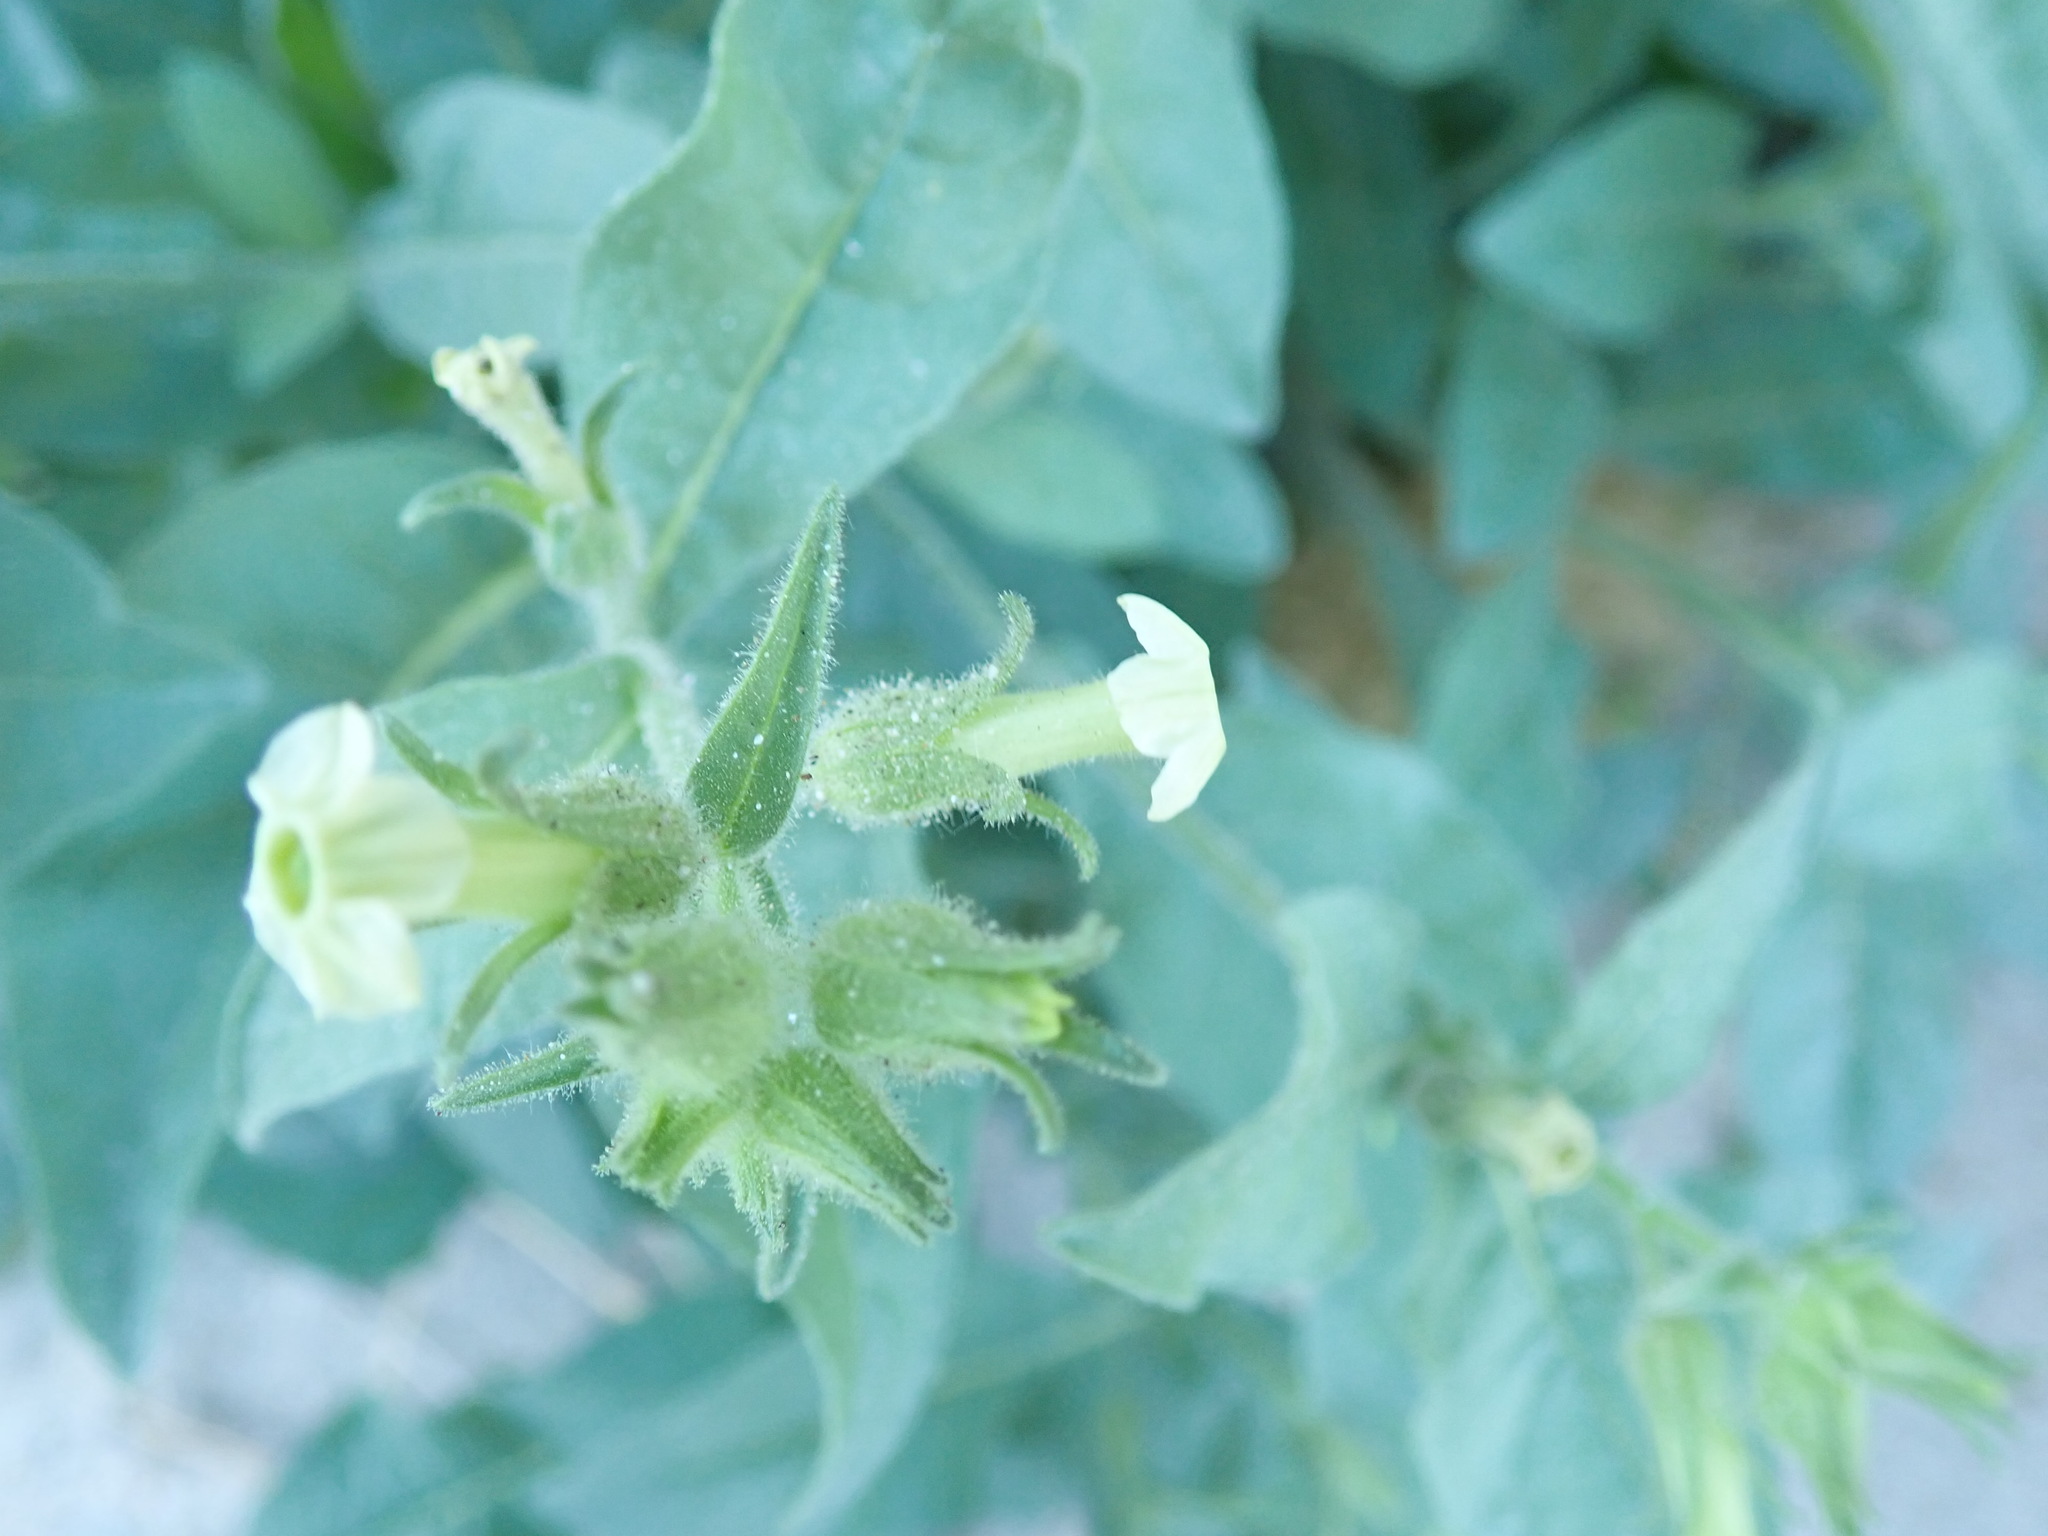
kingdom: Plantae
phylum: Tracheophyta
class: Magnoliopsida
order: Solanales
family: Solanaceae
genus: Nicotiana
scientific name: Nicotiana obtusifolia
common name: Desert tobacco
